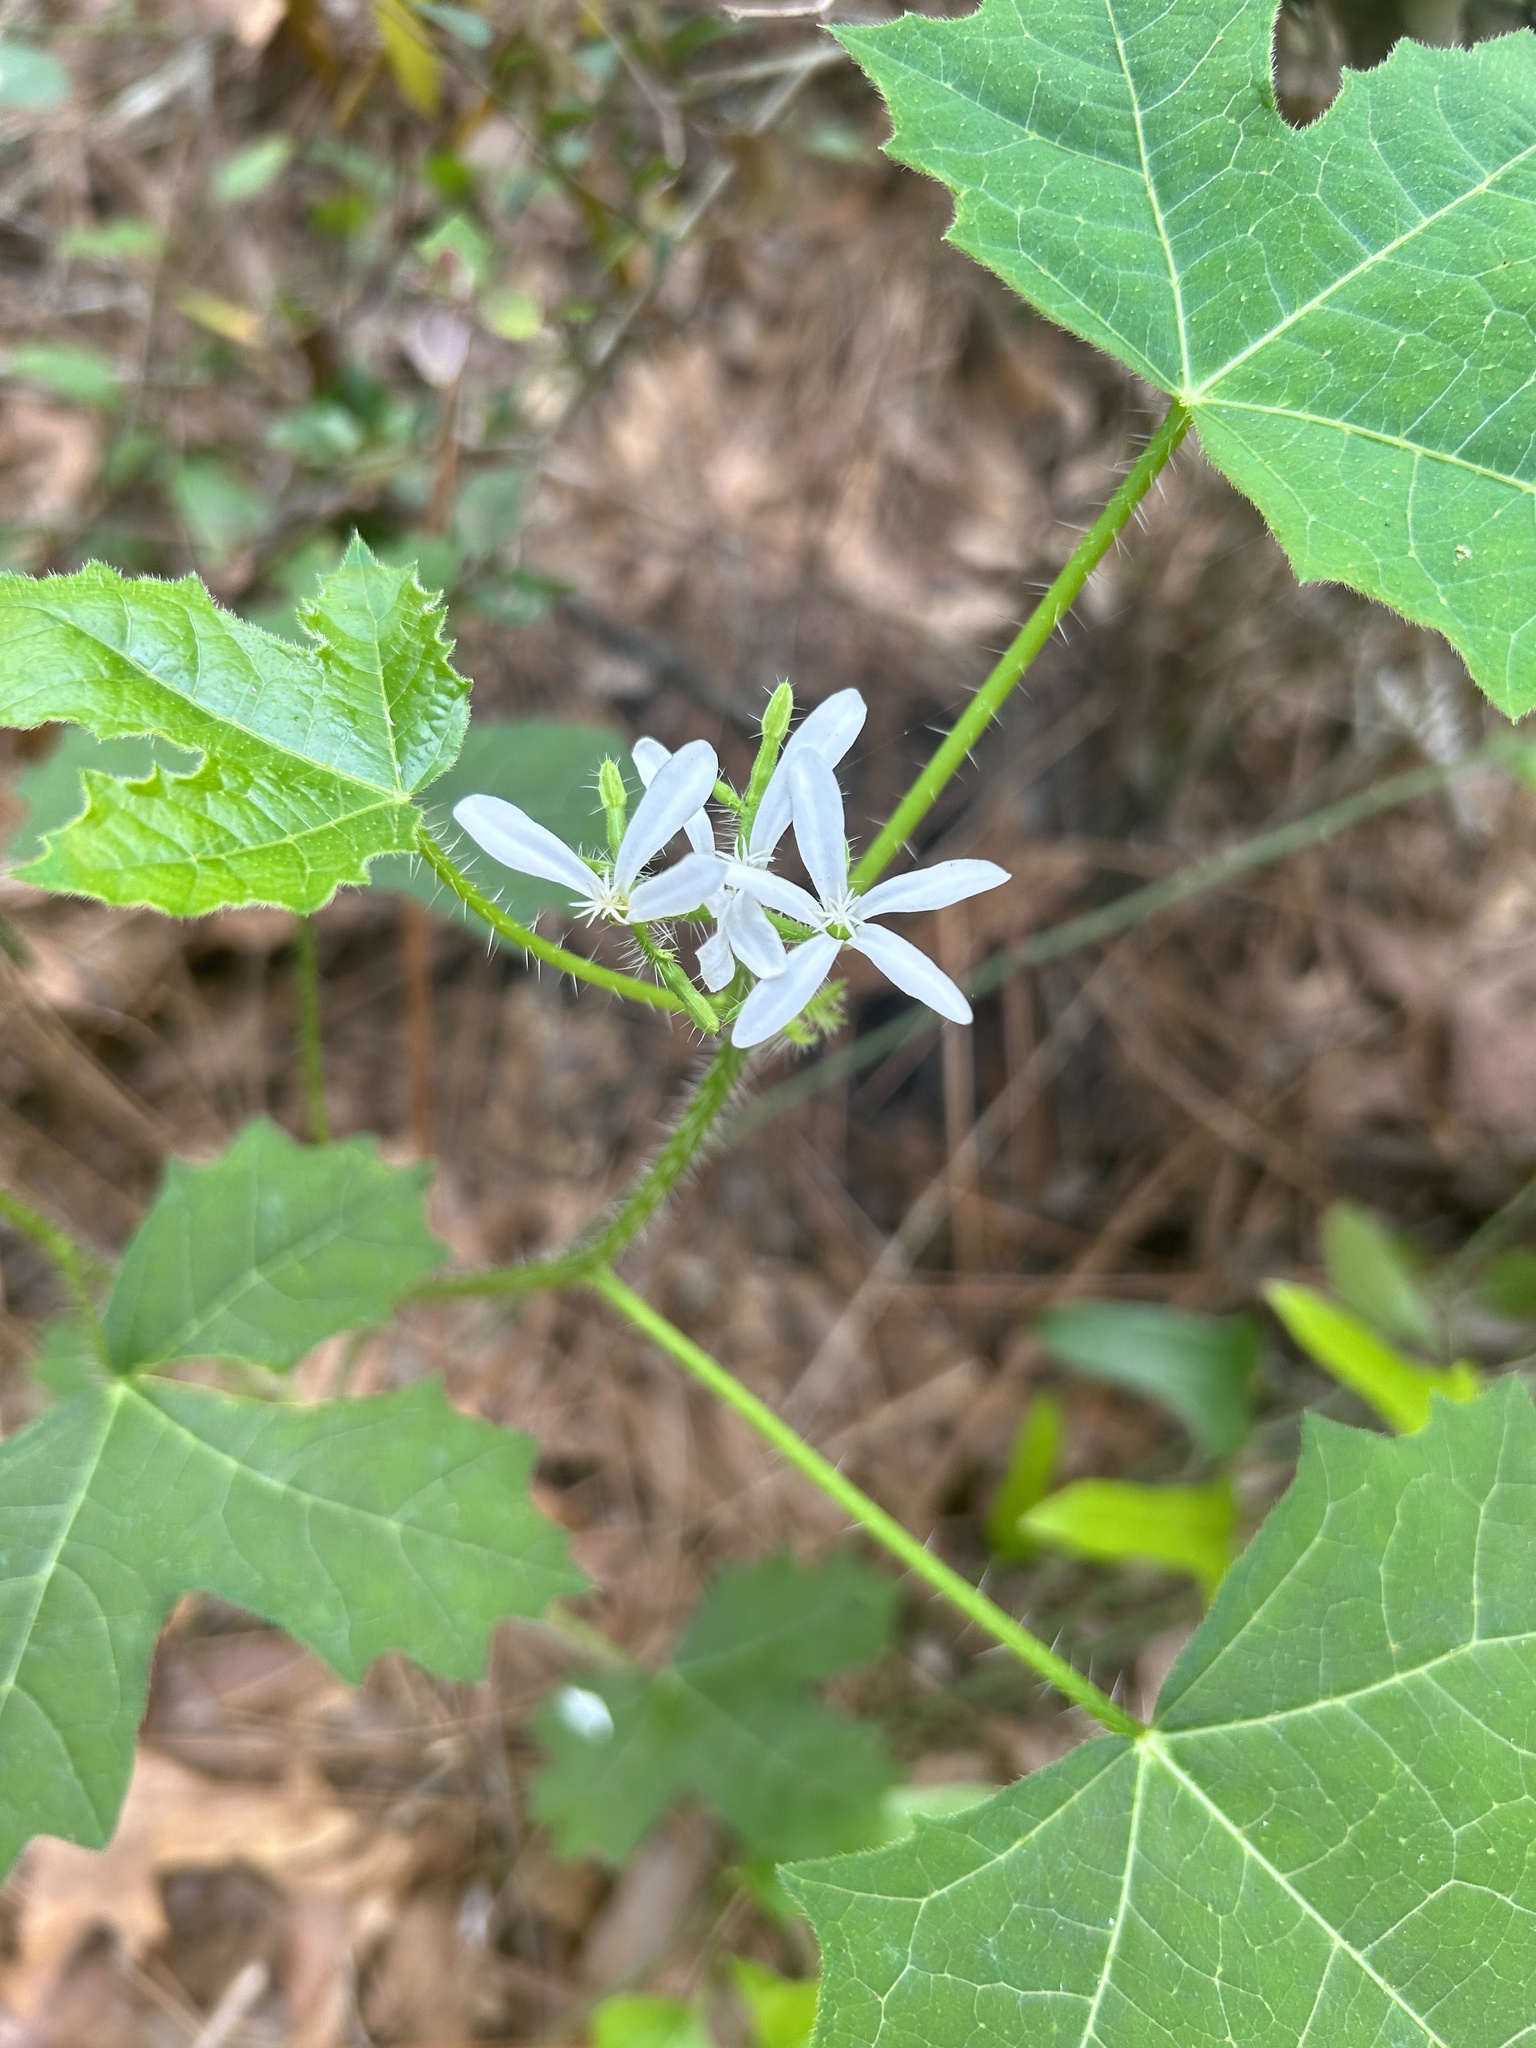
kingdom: Plantae
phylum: Tracheophyta
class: Magnoliopsida
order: Malpighiales
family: Euphorbiaceae
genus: Cnidoscolus
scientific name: Cnidoscolus stimulosus
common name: Bull-nettle
